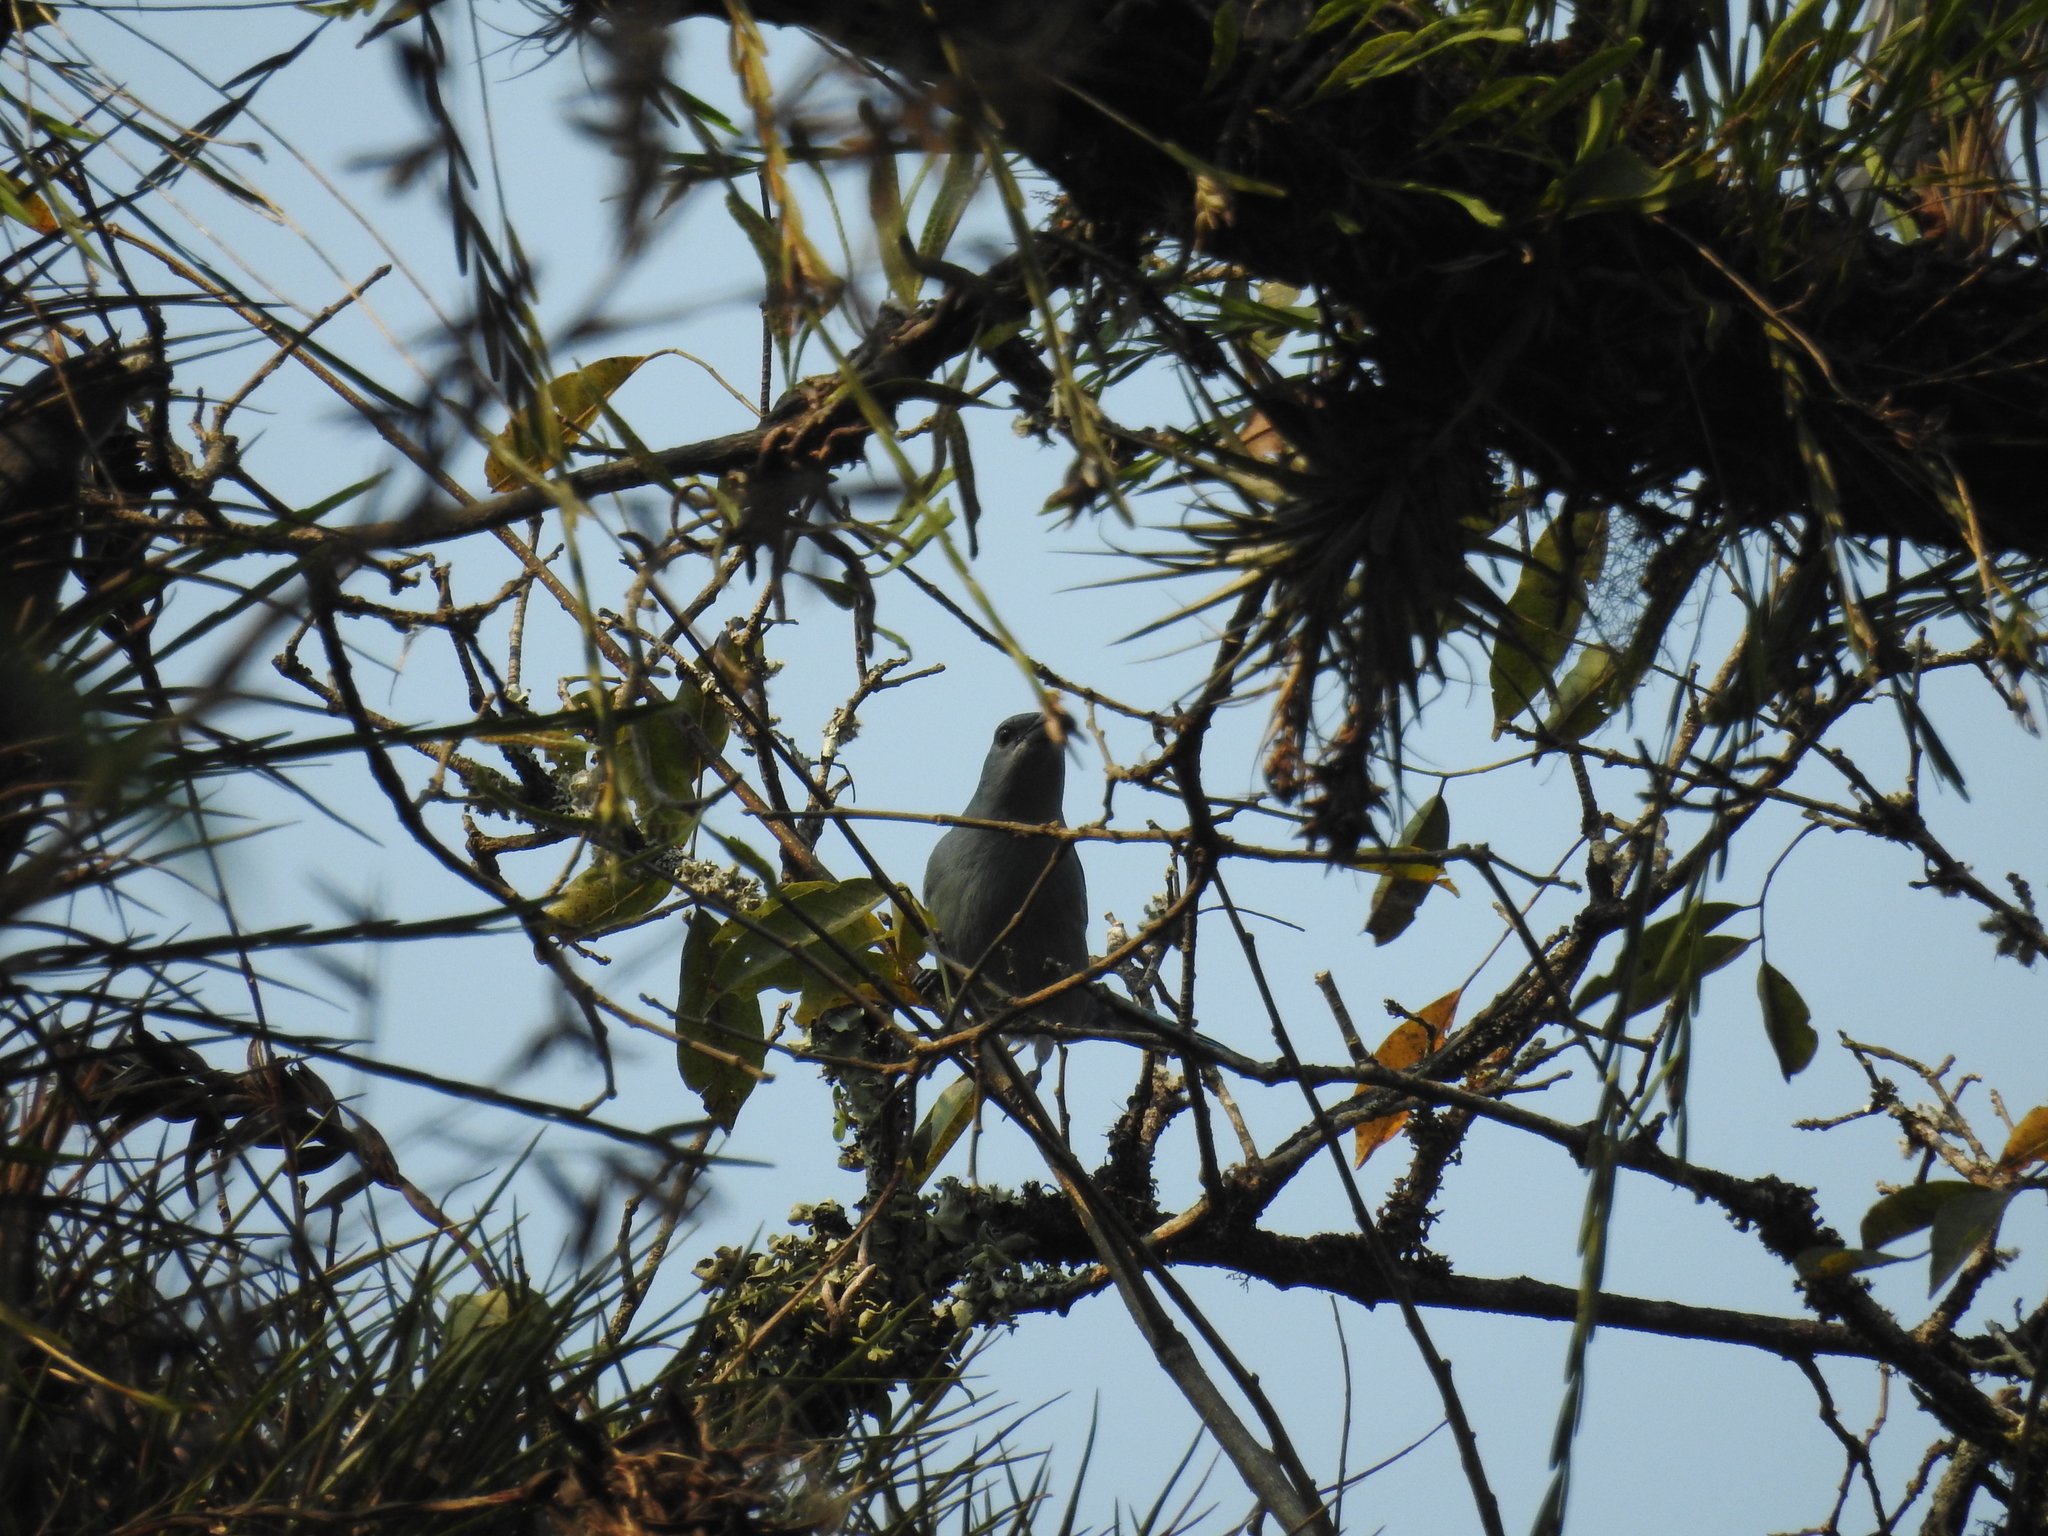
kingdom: Animalia
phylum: Chordata
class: Aves
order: Passeriformes
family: Thraupidae
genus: Thraupis
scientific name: Thraupis sayaca
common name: Sayaca tanager
